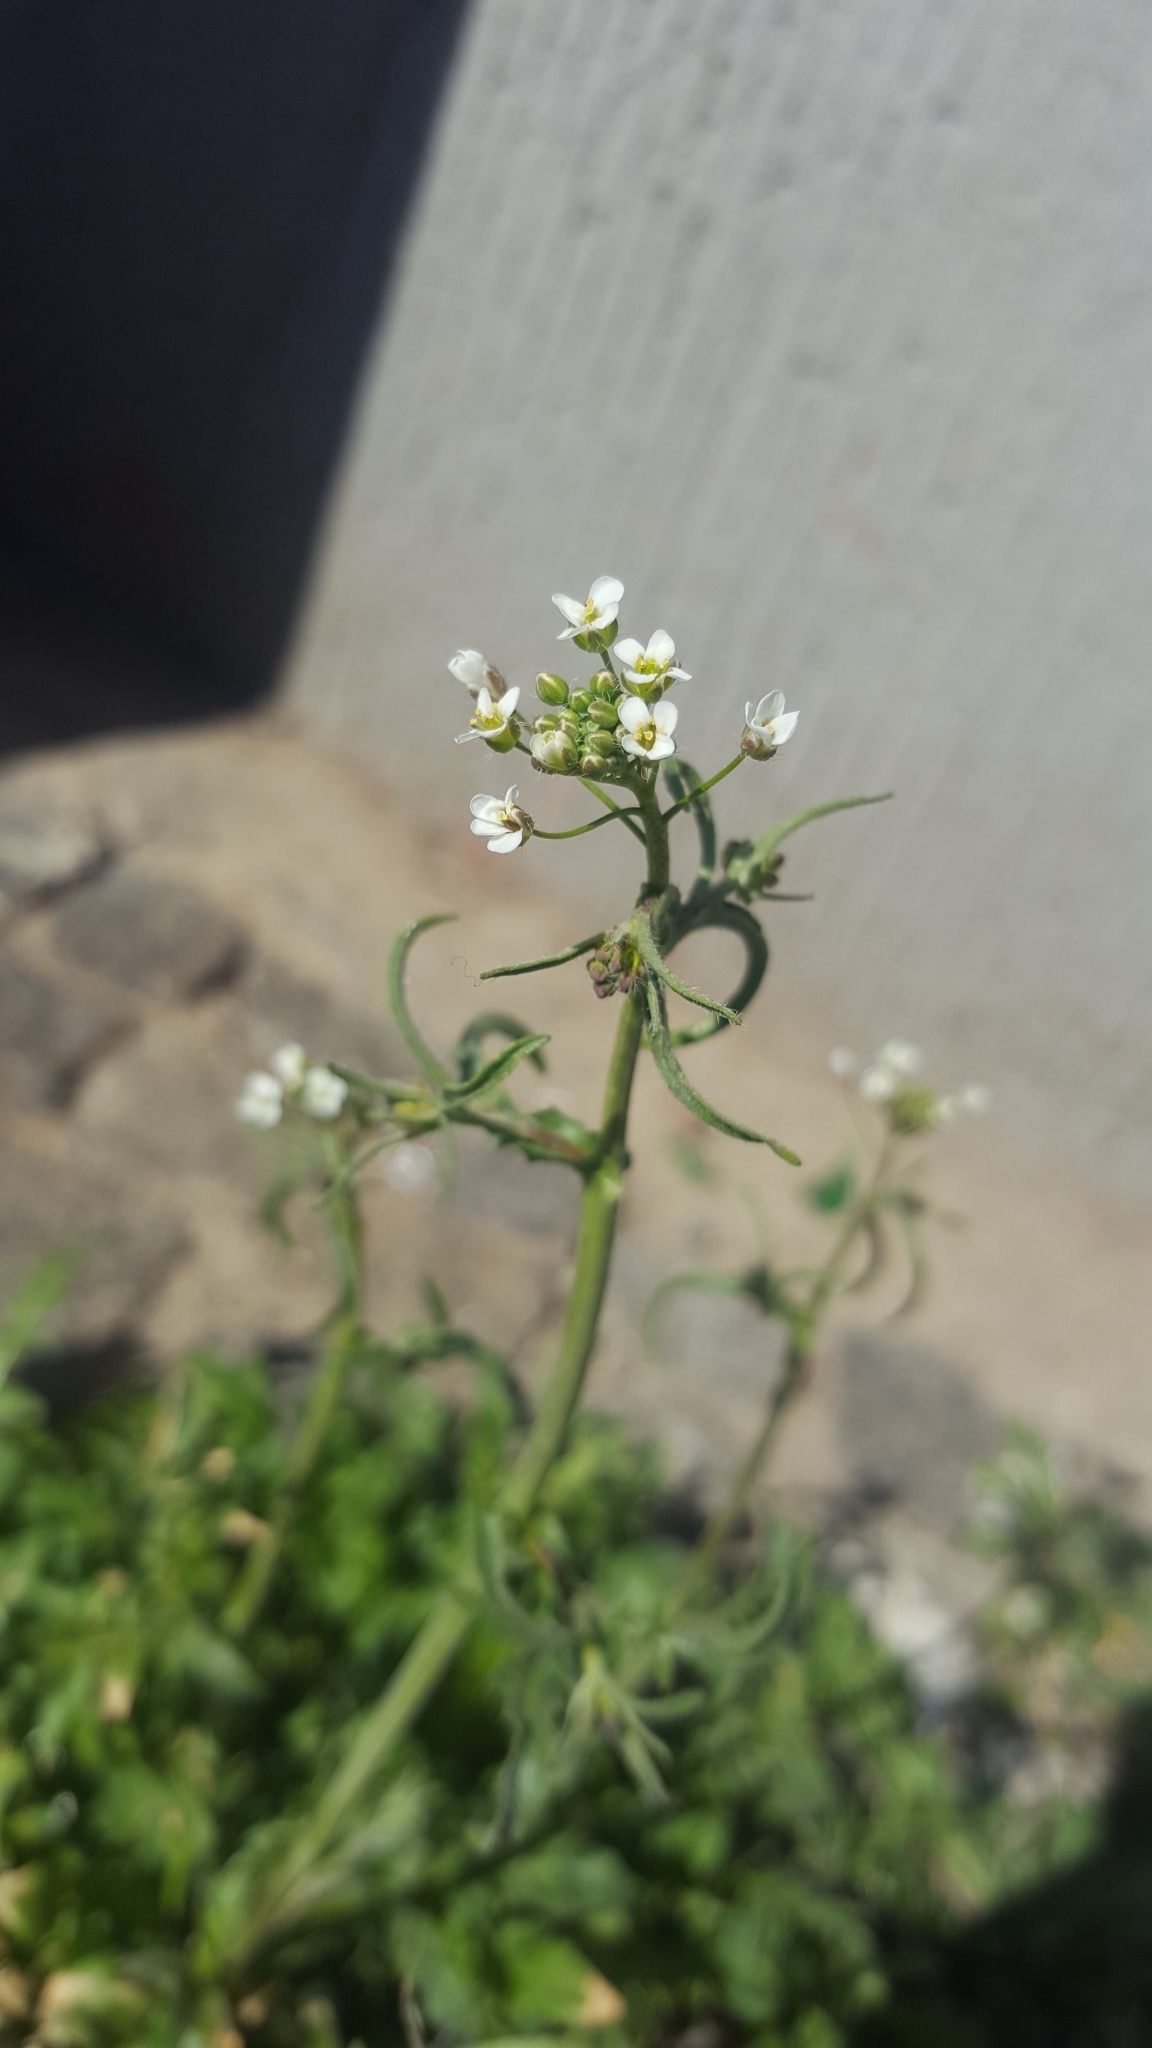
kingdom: Plantae
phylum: Tracheophyta
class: Magnoliopsida
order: Brassicales
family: Brassicaceae
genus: Capsella
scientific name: Capsella bursa-pastoris
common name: Shepherd's purse
